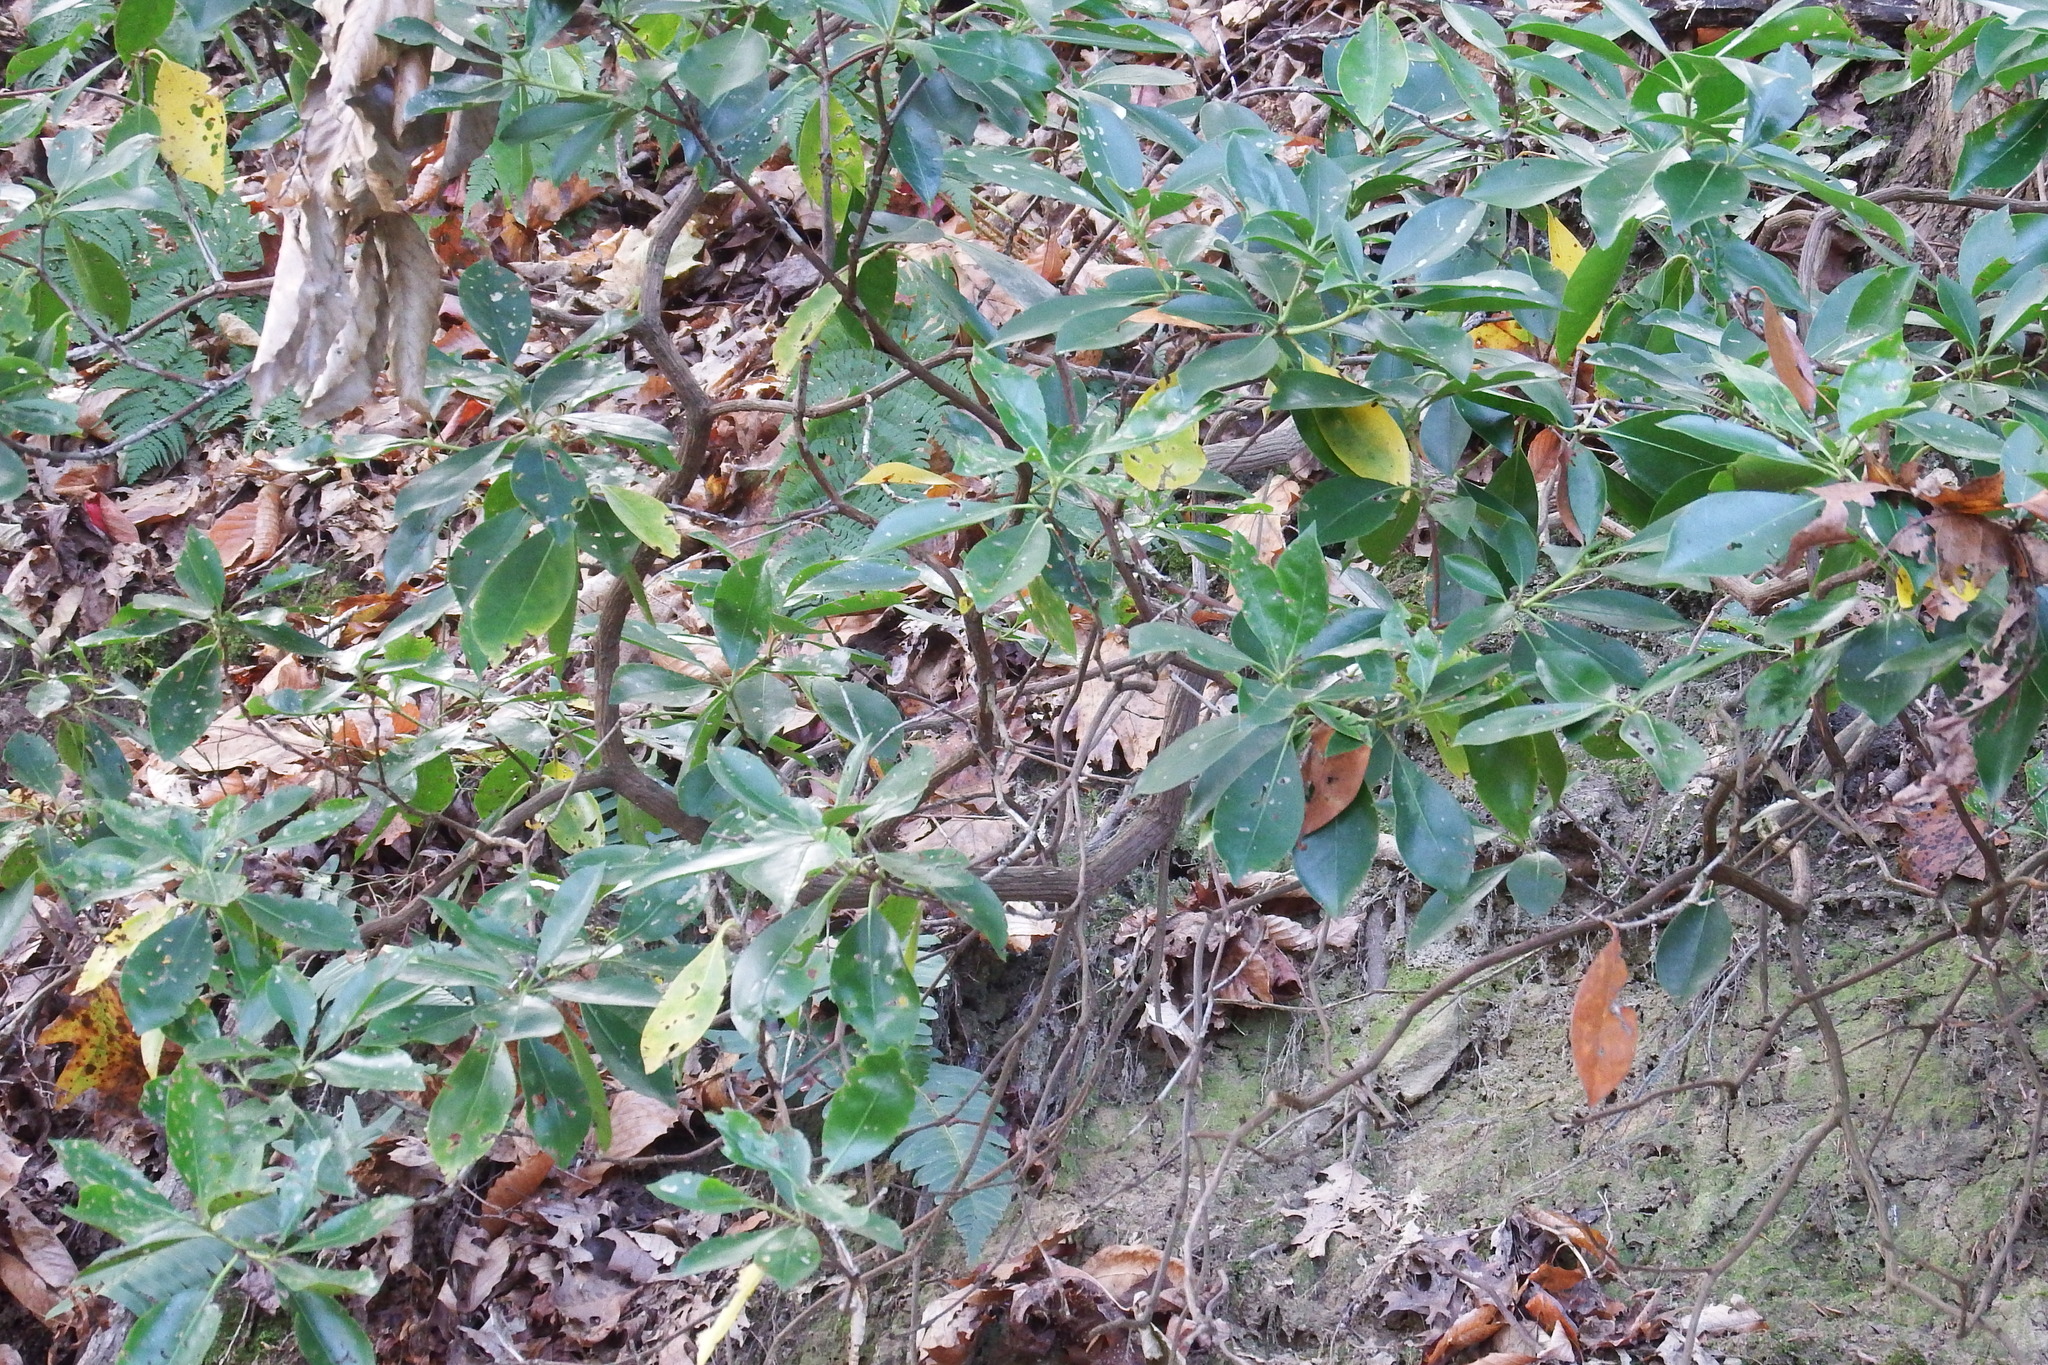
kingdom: Plantae
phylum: Tracheophyta
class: Magnoliopsida
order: Ericales
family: Ericaceae
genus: Kalmia
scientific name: Kalmia latifolia
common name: Mountain-laurel
